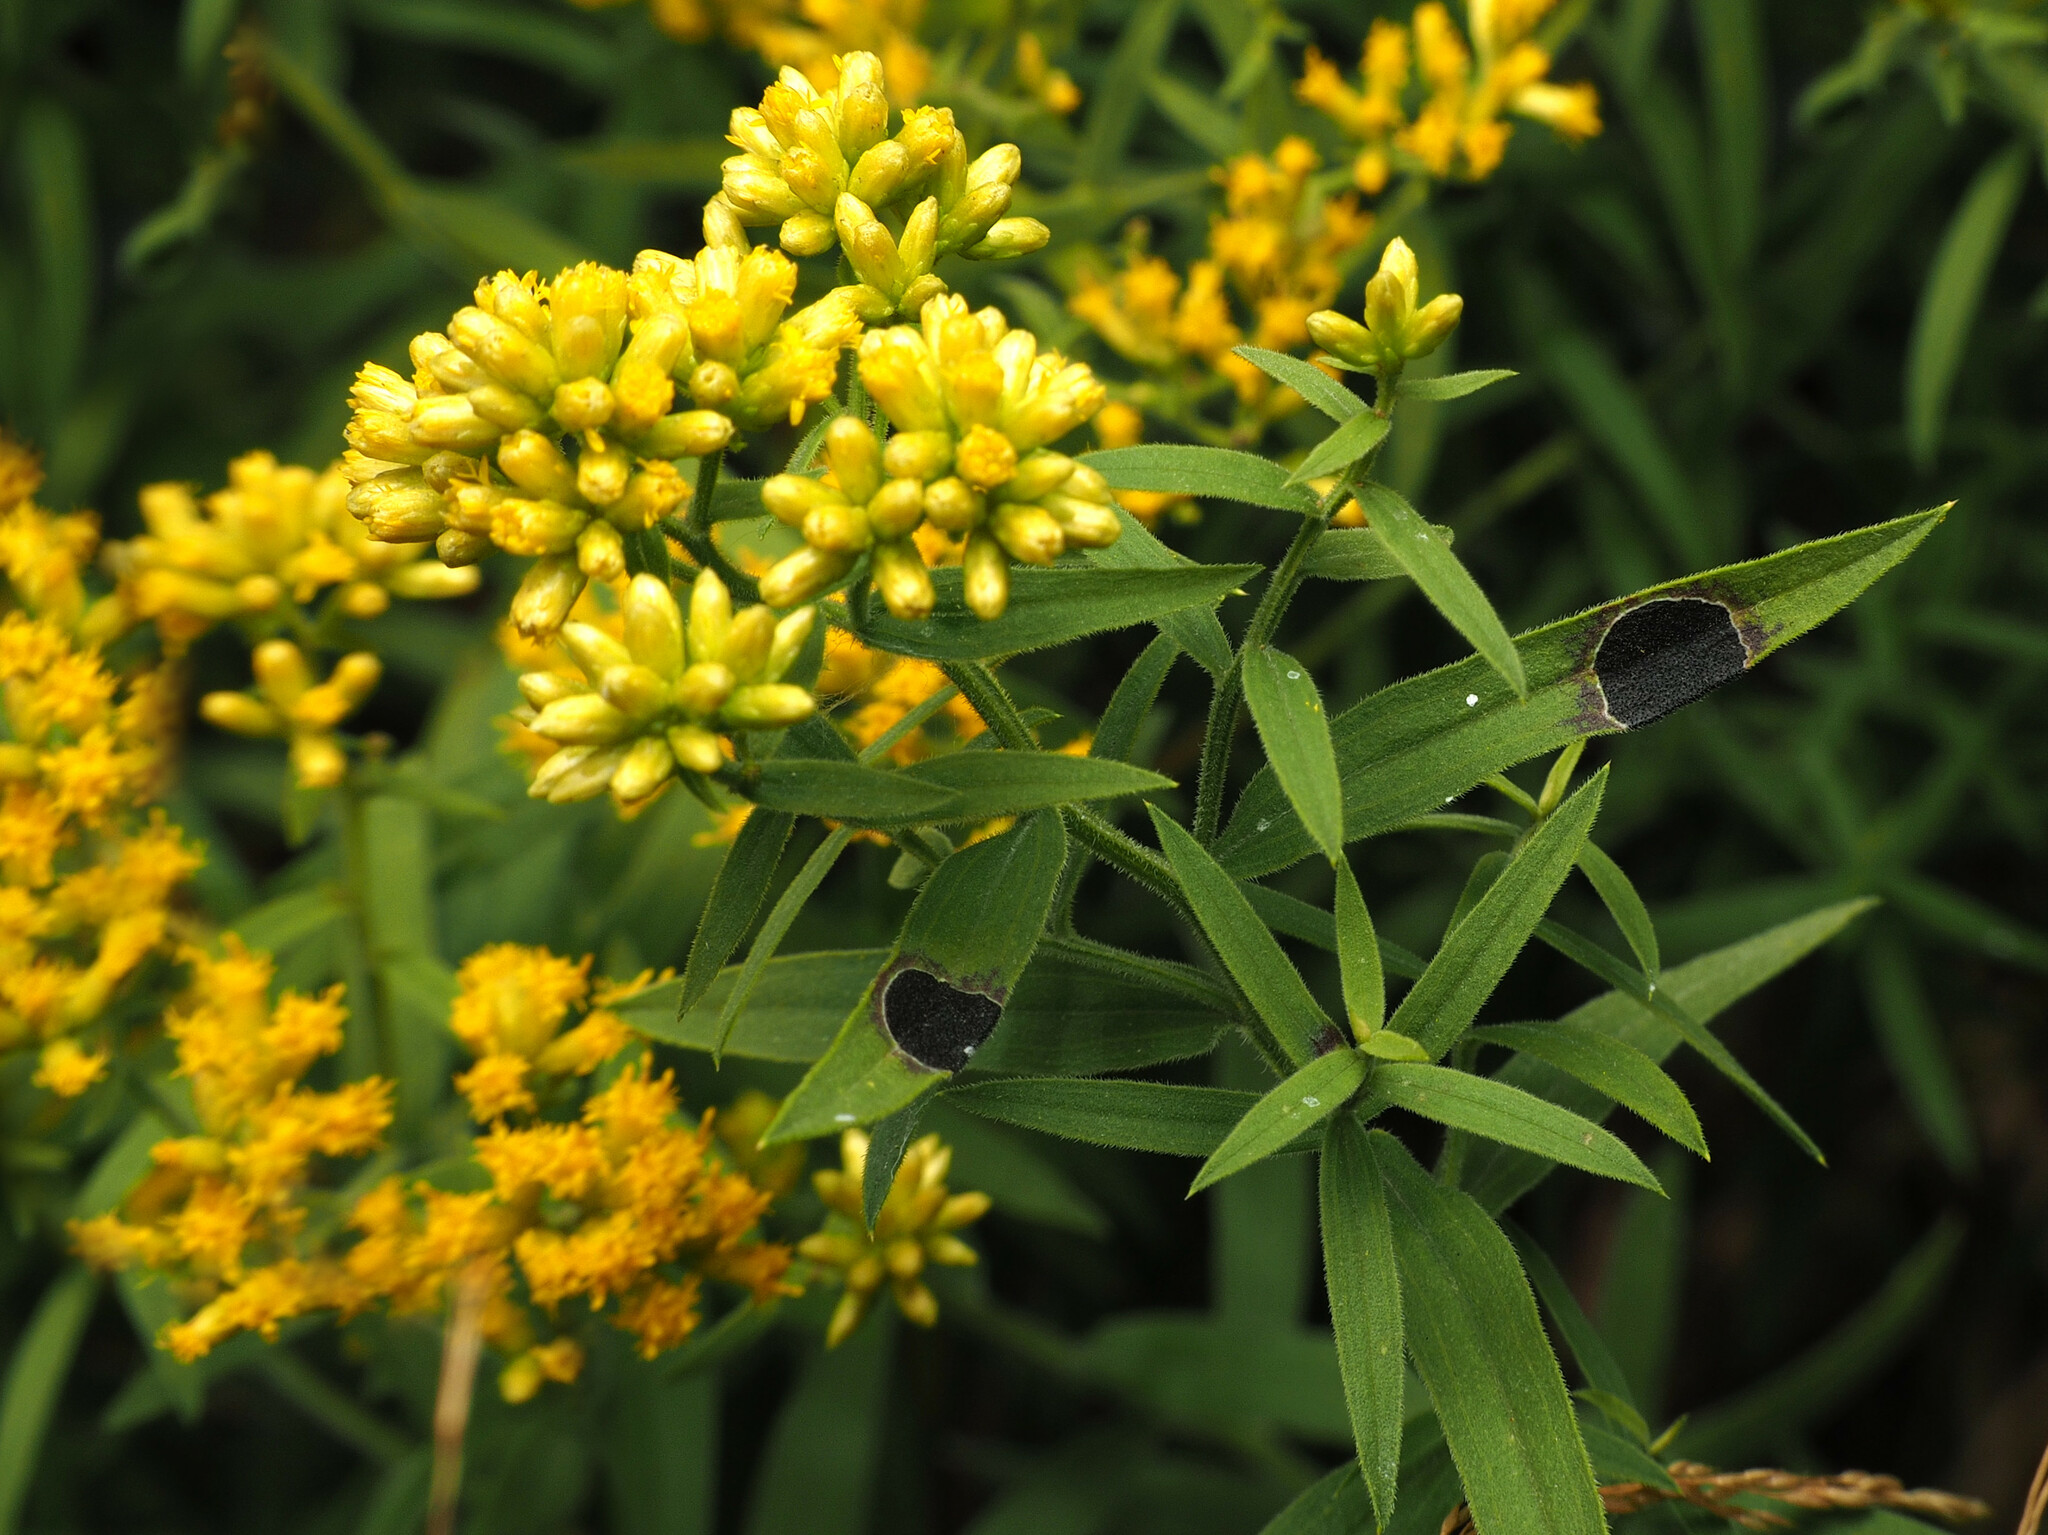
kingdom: Animalia
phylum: Arthropoda
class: Insecta
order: Diptera
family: Cecidomyiidae
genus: Asteromyia
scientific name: Asteromyia euthamiae
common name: Euthamia leaf gall midge
